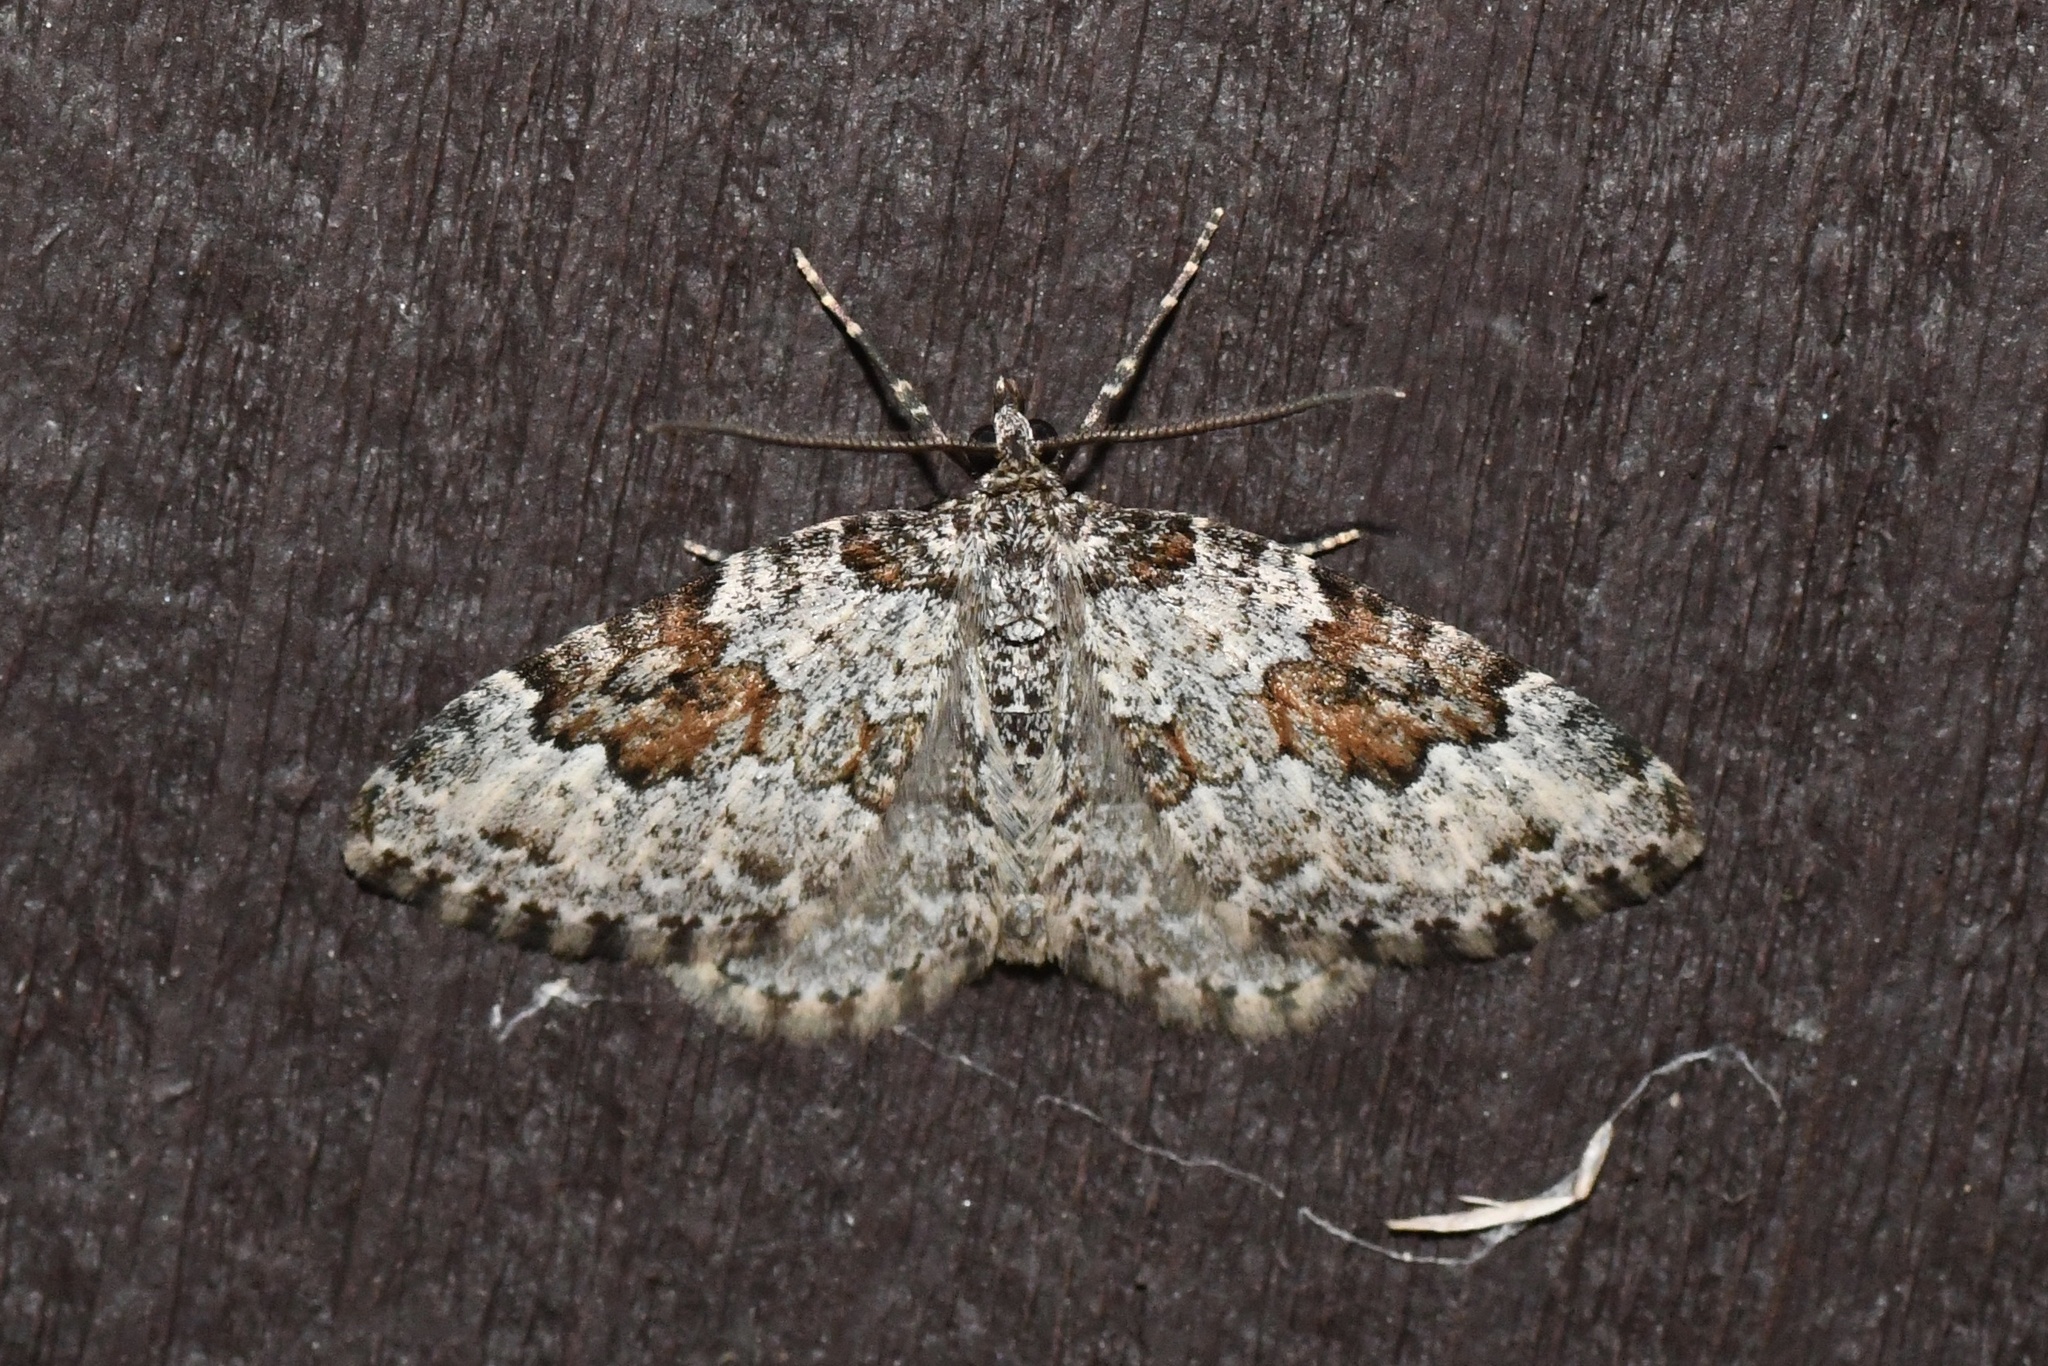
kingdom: Animalia
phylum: Arthropoda
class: Insecta
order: Lepidoptera
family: Geometridae
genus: Xanthorhoe
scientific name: Xanthorhoe iduata
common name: Broken-banded carpet
